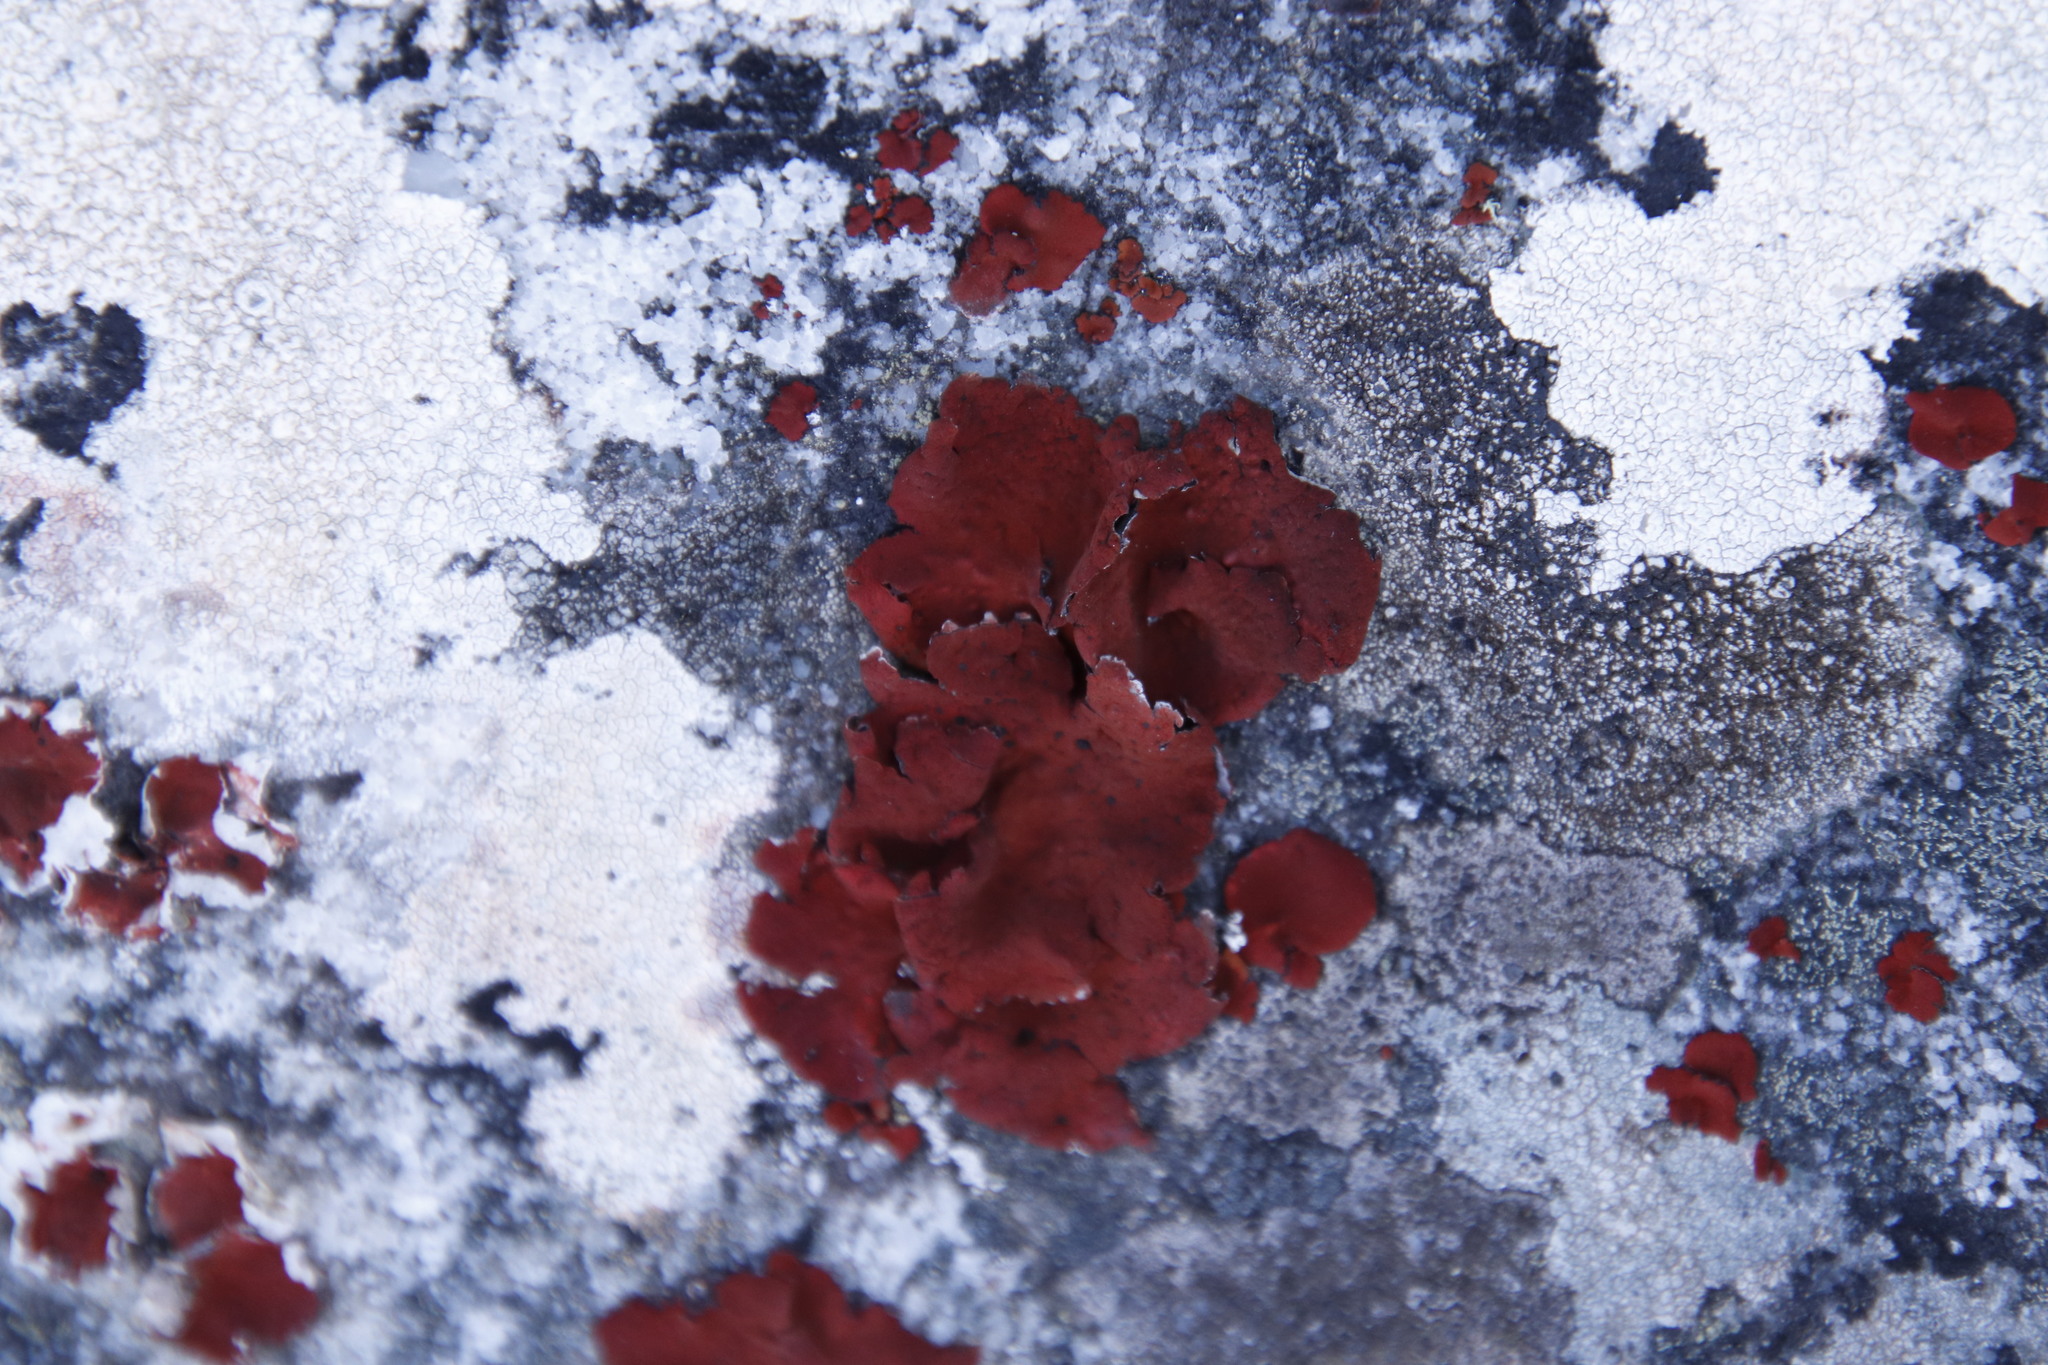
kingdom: Fungi
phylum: Ascomycota
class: Lecanoromycetes
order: Umbilicariales
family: Umbilicariaceae
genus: Lasallia
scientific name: Lasallia rubiginosa
